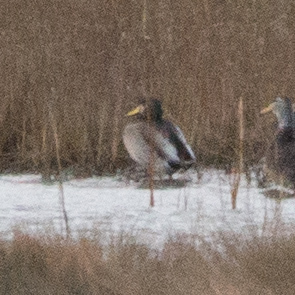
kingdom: Animalia
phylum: Chordata
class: Aves
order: Anseriformes
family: Anatidae
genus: Anas
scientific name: Anas platyrhynchos
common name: Mallard
